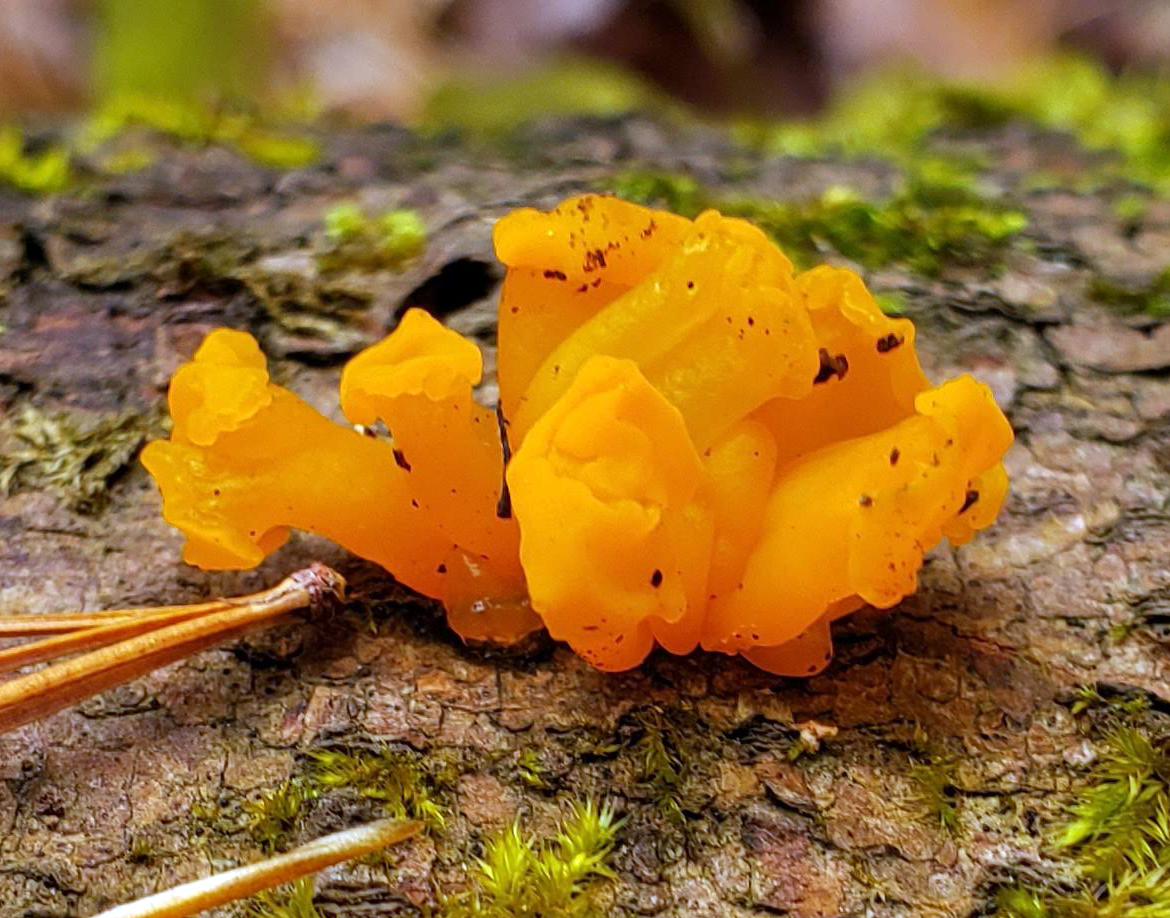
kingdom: Fungi
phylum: Basidiomycota
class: Dacrymycetes
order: Dacrymycetales
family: Dacrymycetaceae
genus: Dacrymyces
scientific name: Dacrymyces chrysospermus
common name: Orange jelly spot
